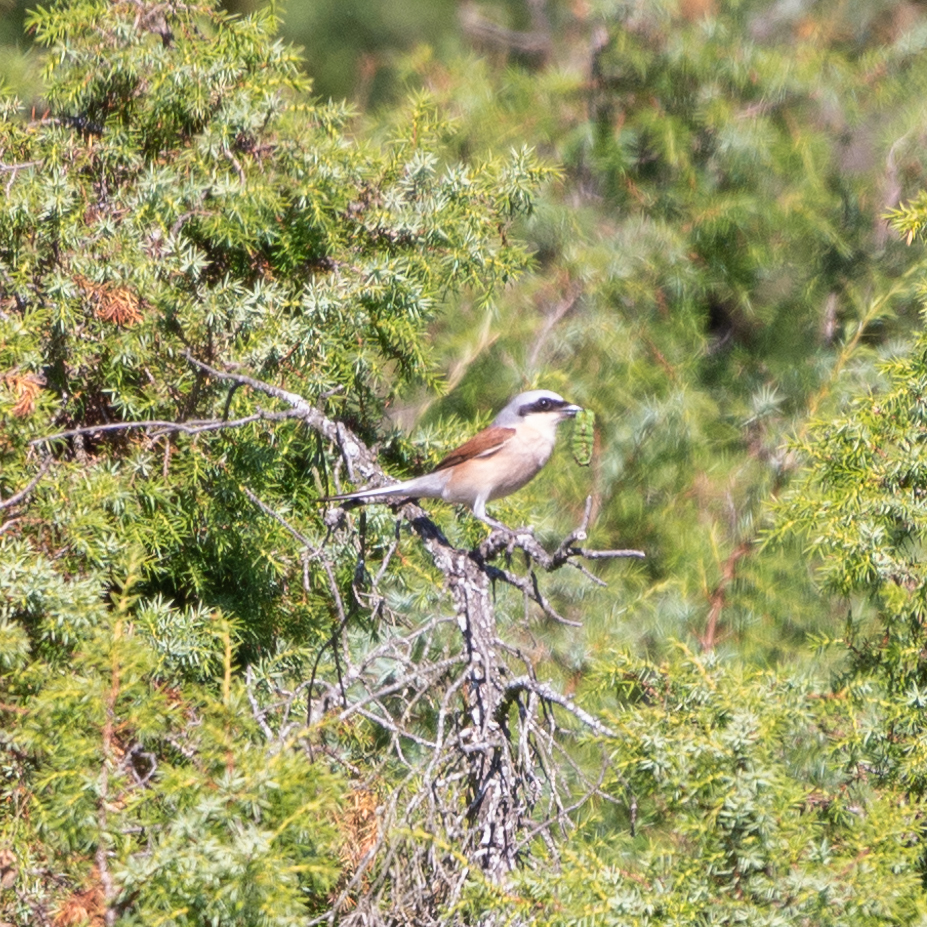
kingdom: Animalia
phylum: Chordata
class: Aves
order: Passeriformes
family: Laniidae
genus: Lanius
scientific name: Lanius collurio
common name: Red-backed shrike
